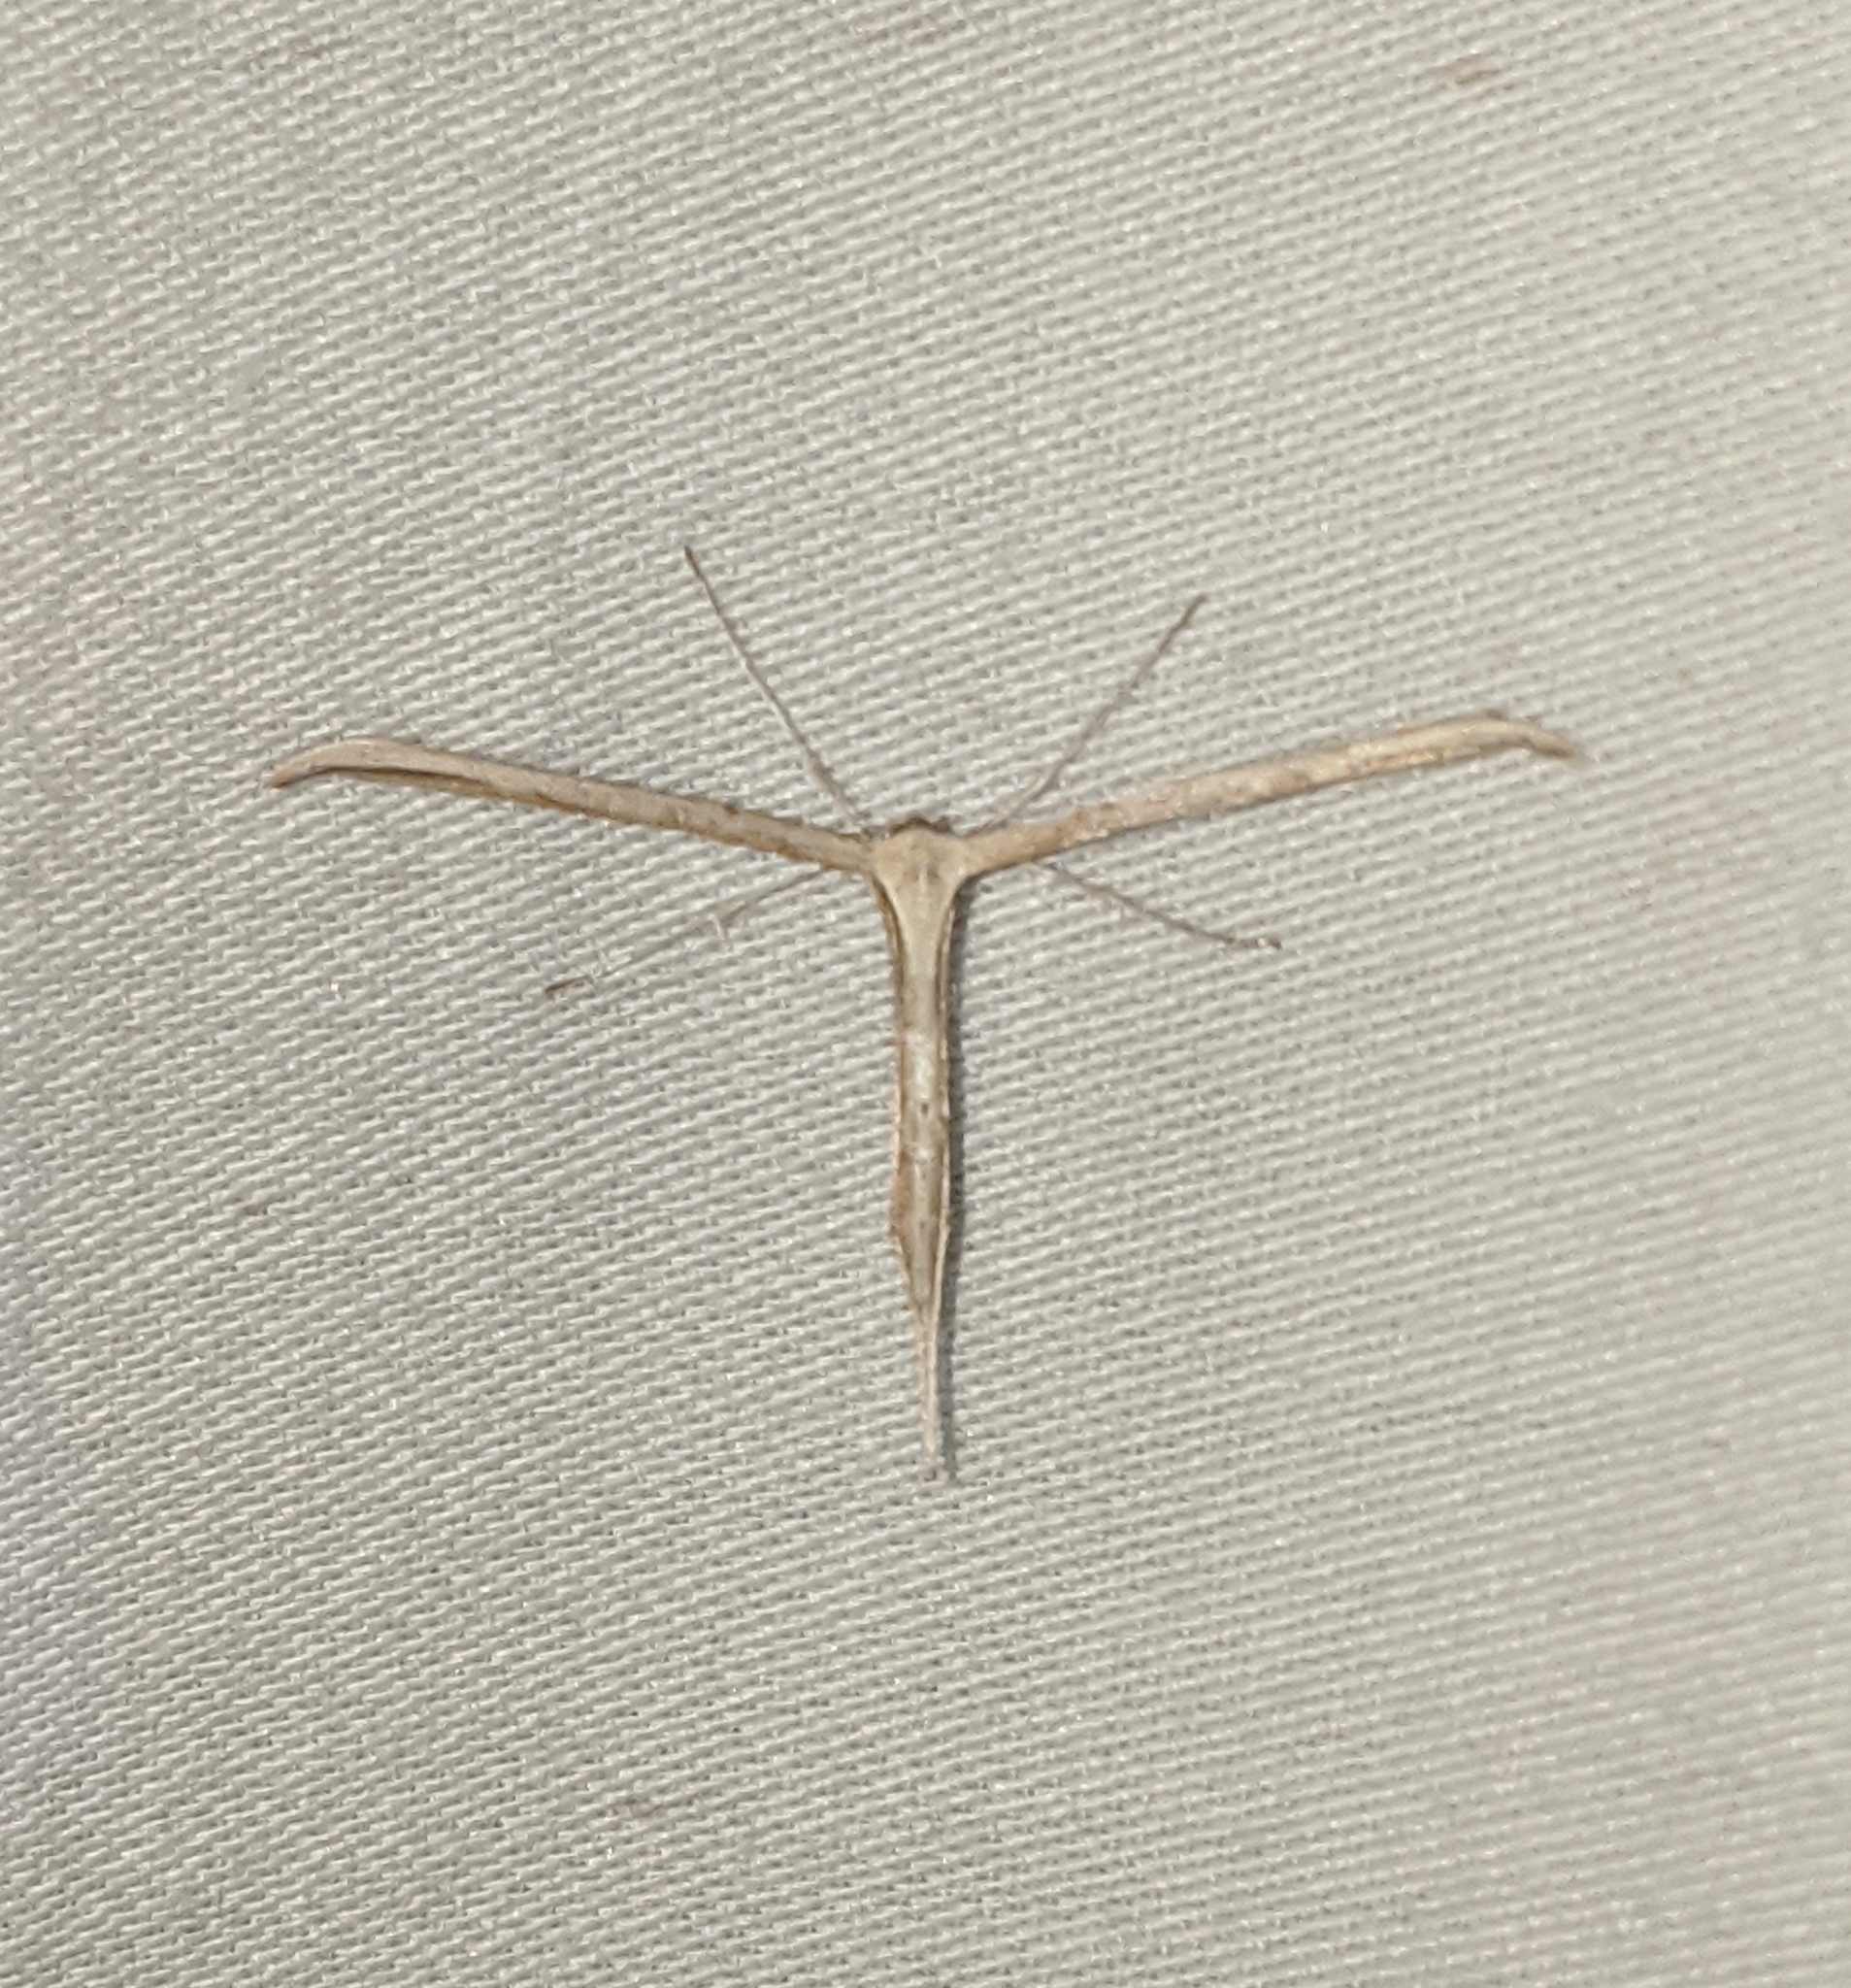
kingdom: Animalia
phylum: Arthropoda
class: Insecta
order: Lepidoptera
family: Pterophoridae
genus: Emmelina
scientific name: Emmelina monodactyla
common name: Common plume
